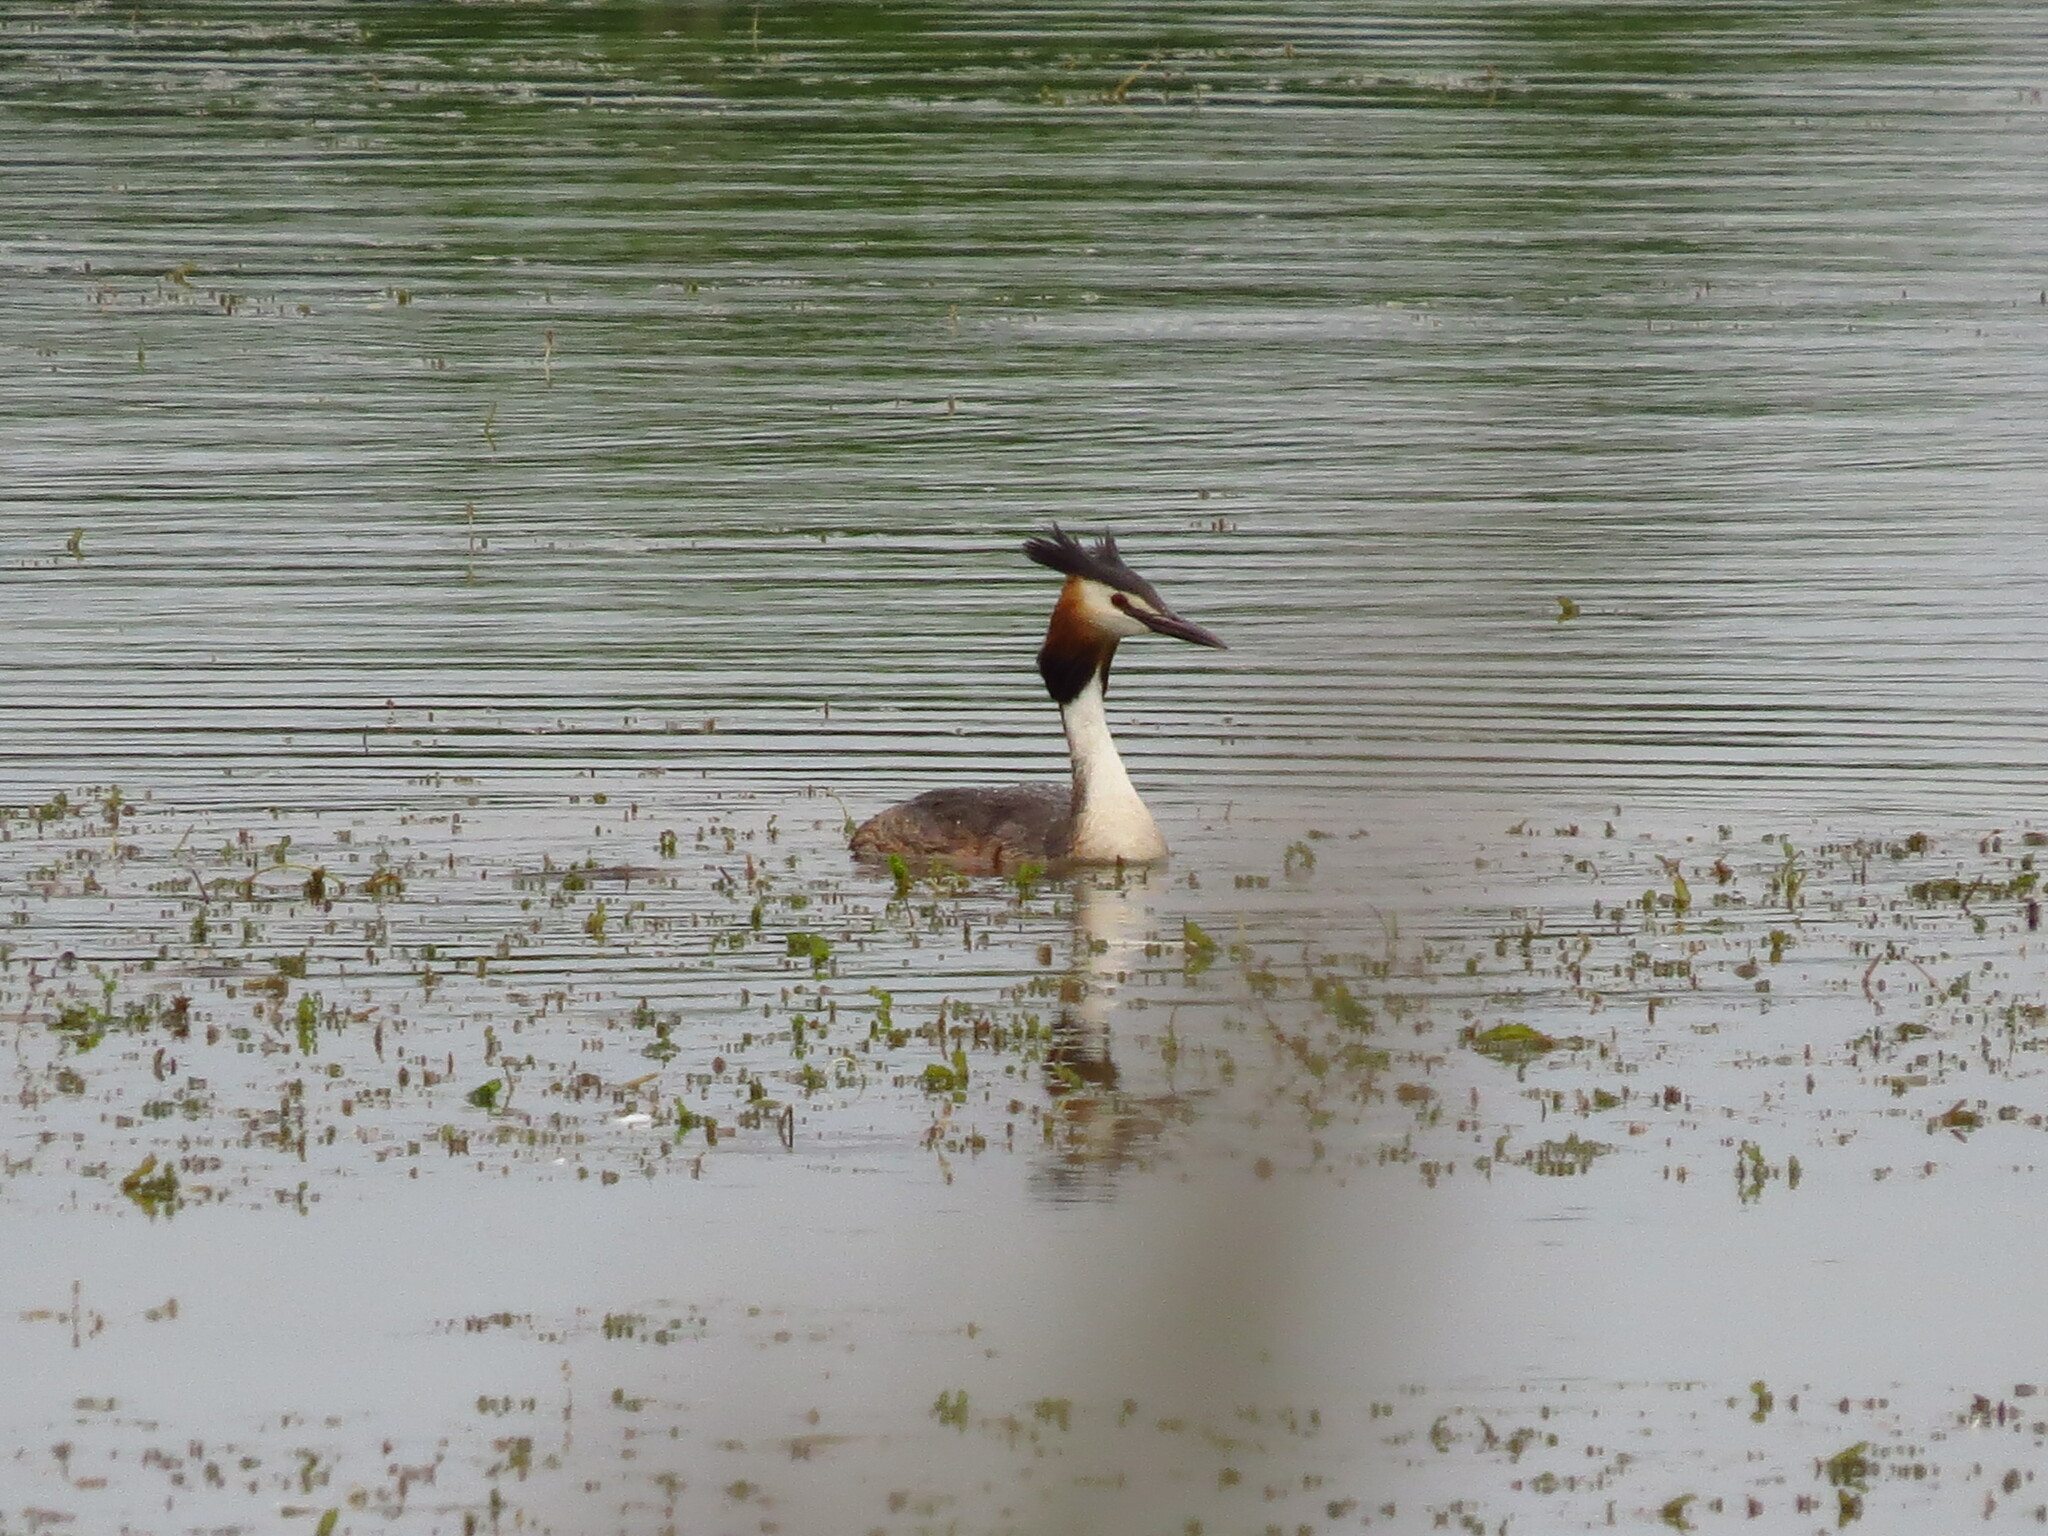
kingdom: Animalia
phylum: Chordata
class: Aves
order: Podicipediformes
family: Podicipedidae
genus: Podiceps
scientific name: Podiceps cristatus
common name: Great crested grebe
